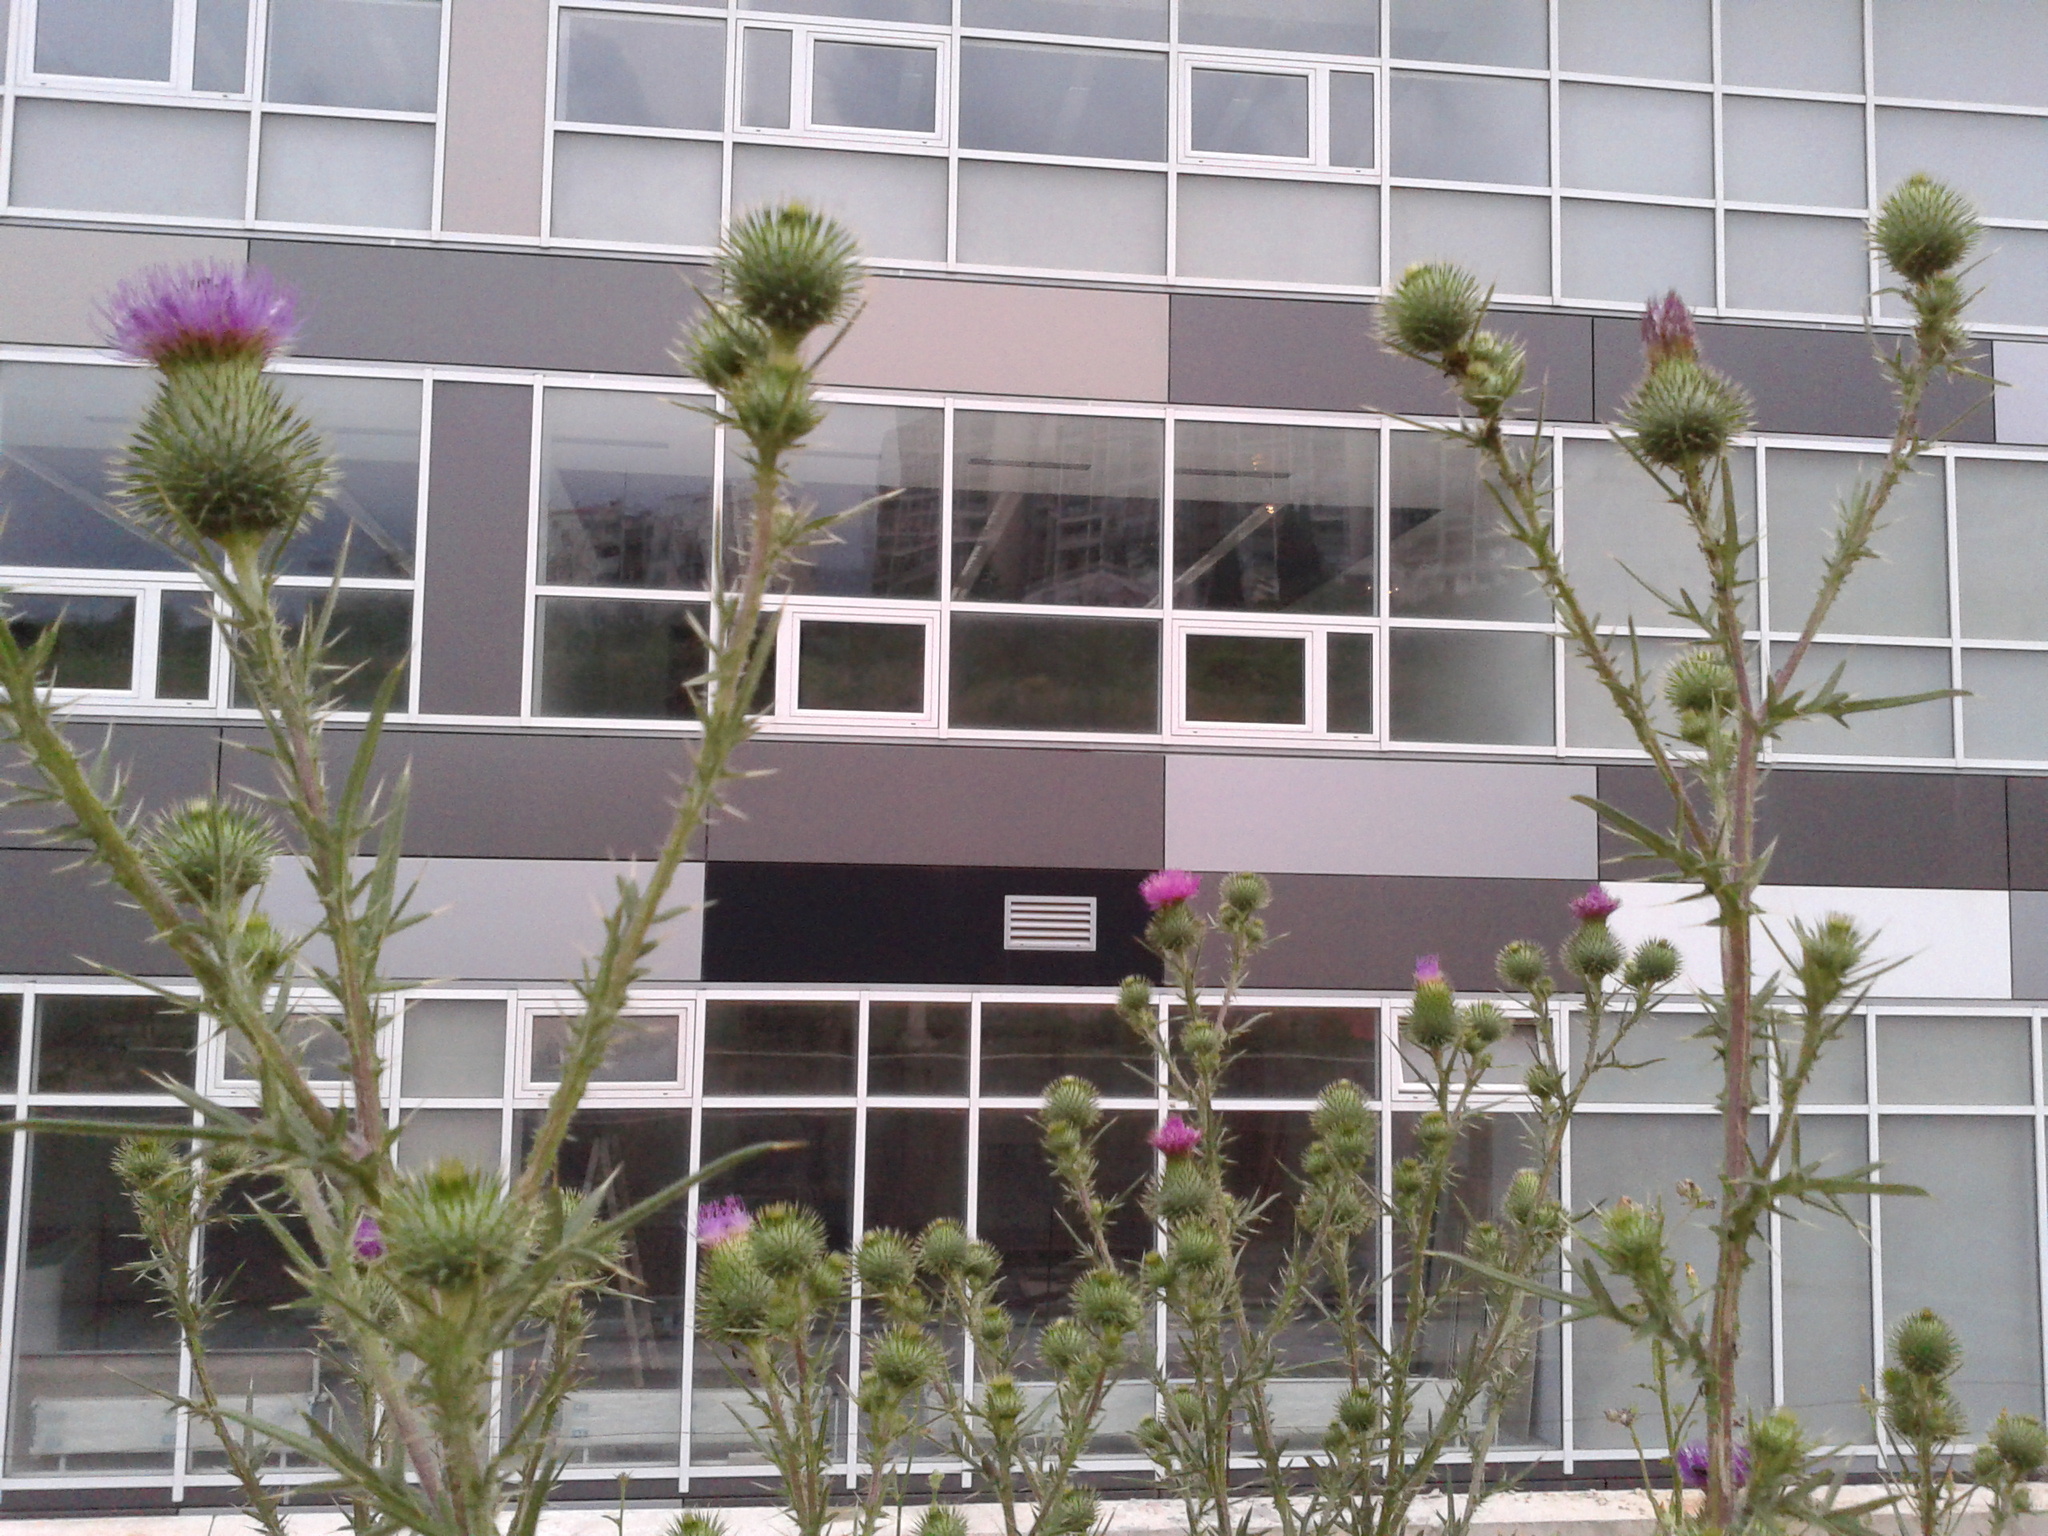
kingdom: Plantae
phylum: Tracheophyta
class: Magnoliopsida
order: Asterales
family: Asteraceae
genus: Cirsium
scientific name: Cirsium vulgare
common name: Bull thistle
